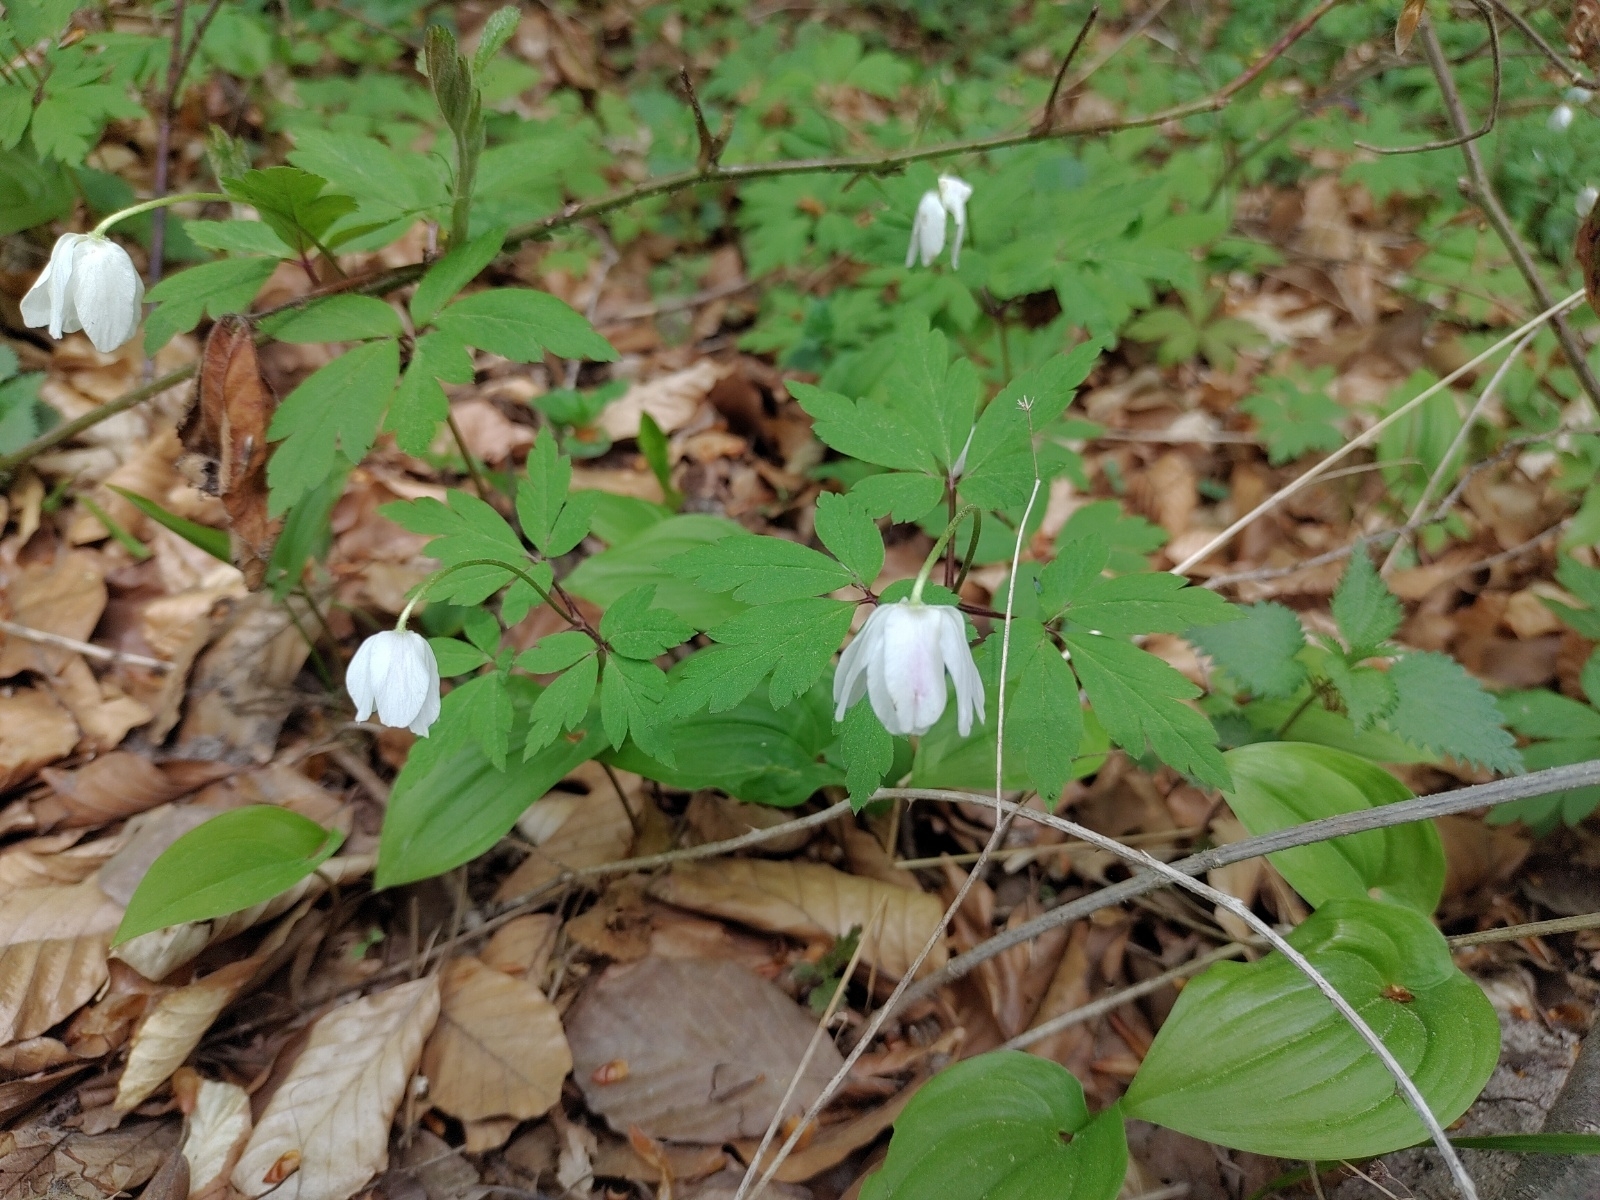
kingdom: Plantae
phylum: Tracheophyta
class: Magnoliopsida
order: Ranunculales
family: Ranunculaceae
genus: Anemone
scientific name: Anemone nemorosa
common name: Wood anemone
